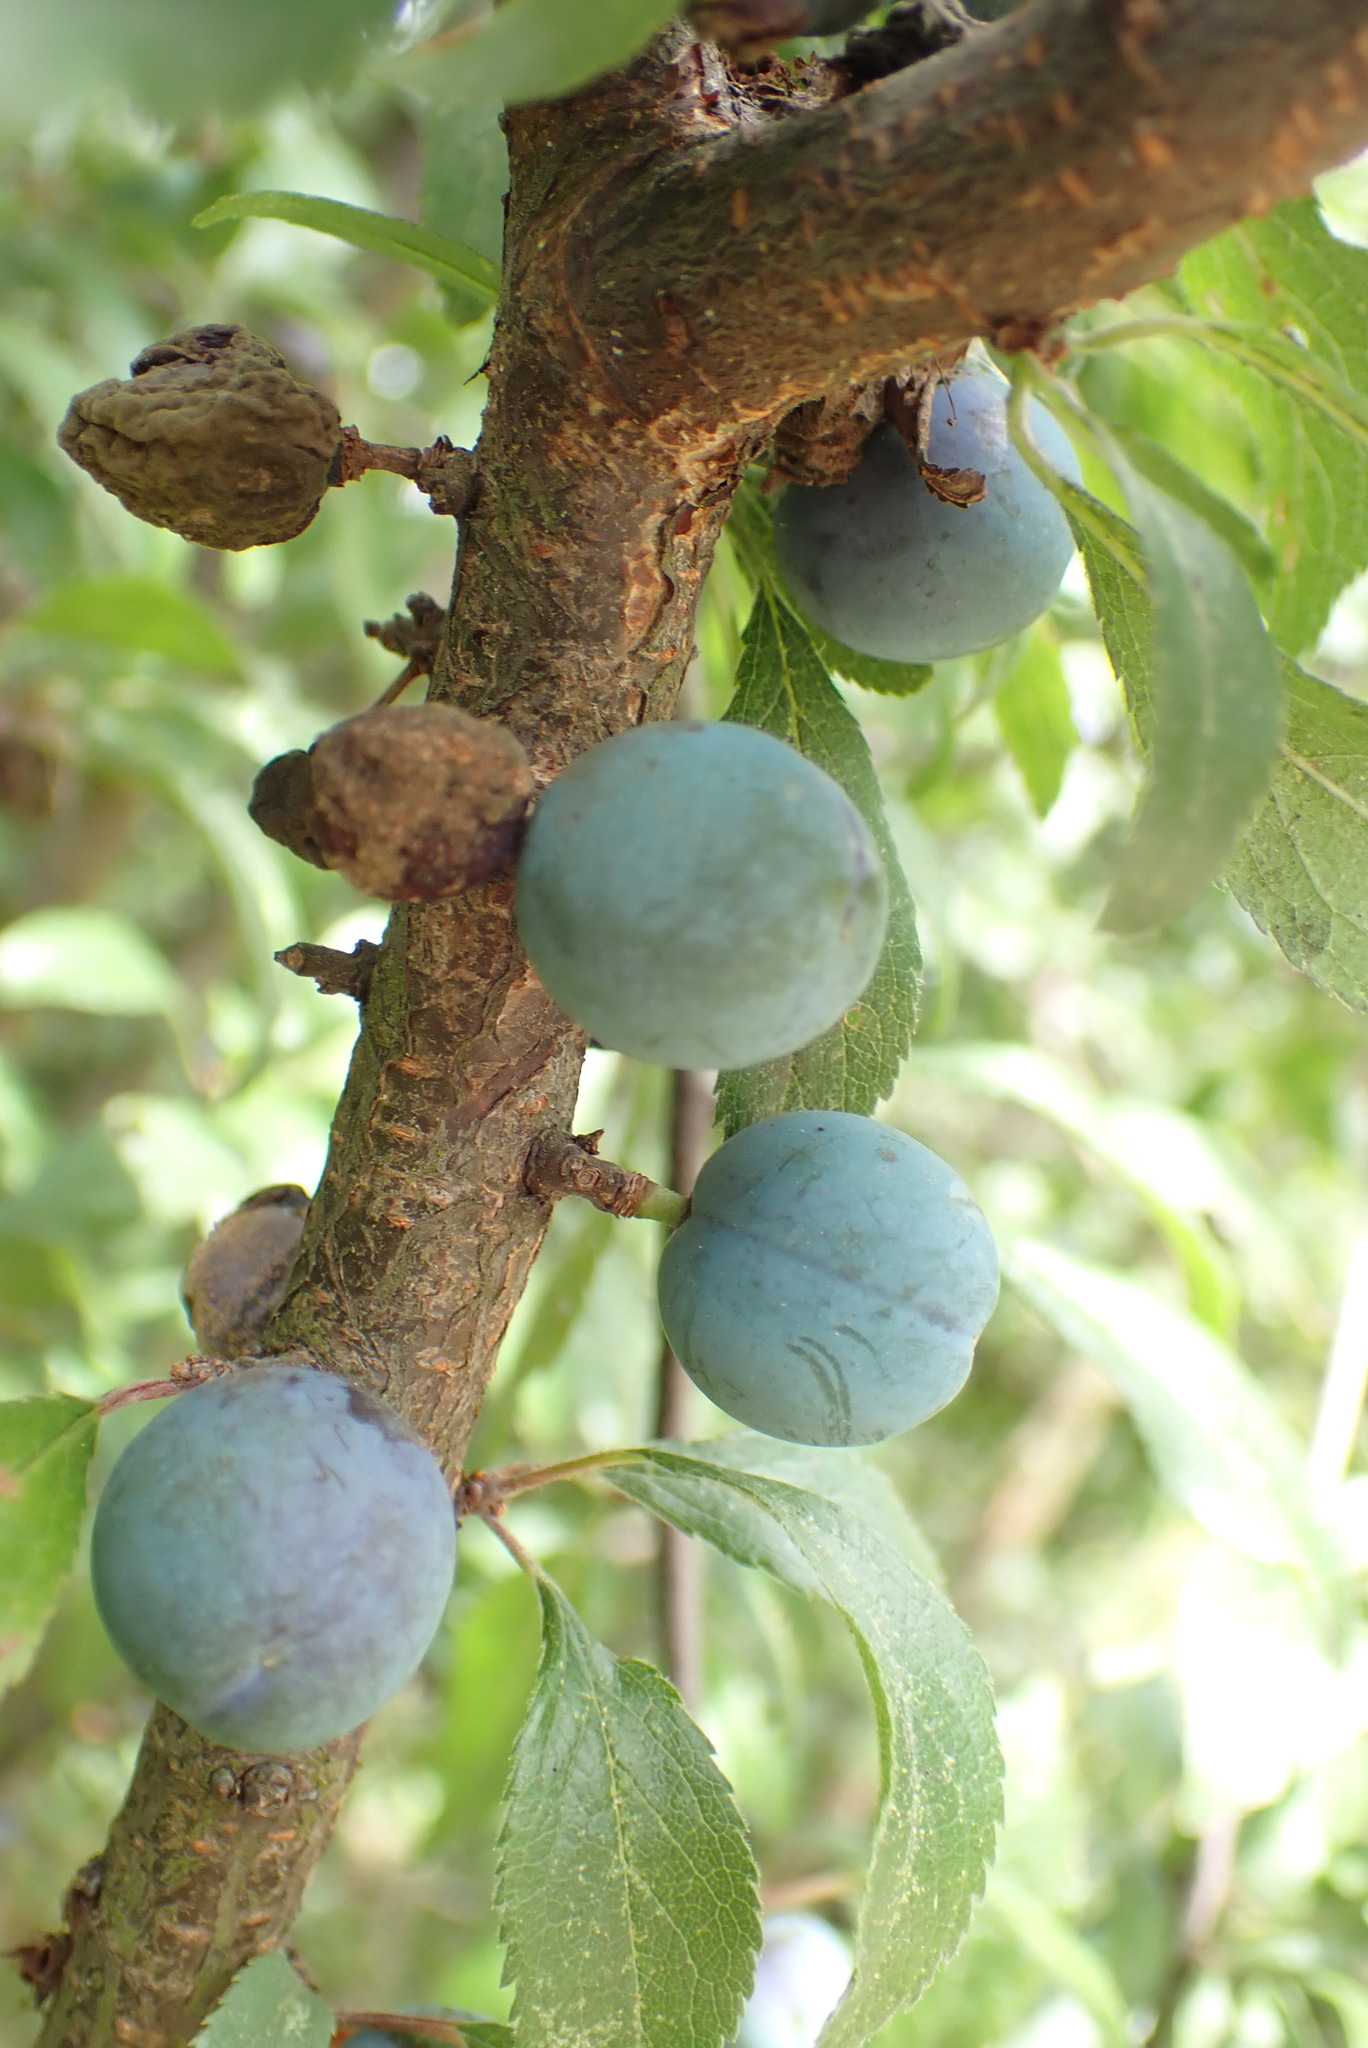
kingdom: Plantae
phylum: Tracheophyta
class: Magnoliopsida
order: Rosales
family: Rosaceae
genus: Prunus
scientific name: Prunus spinosa
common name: Blackthorn
